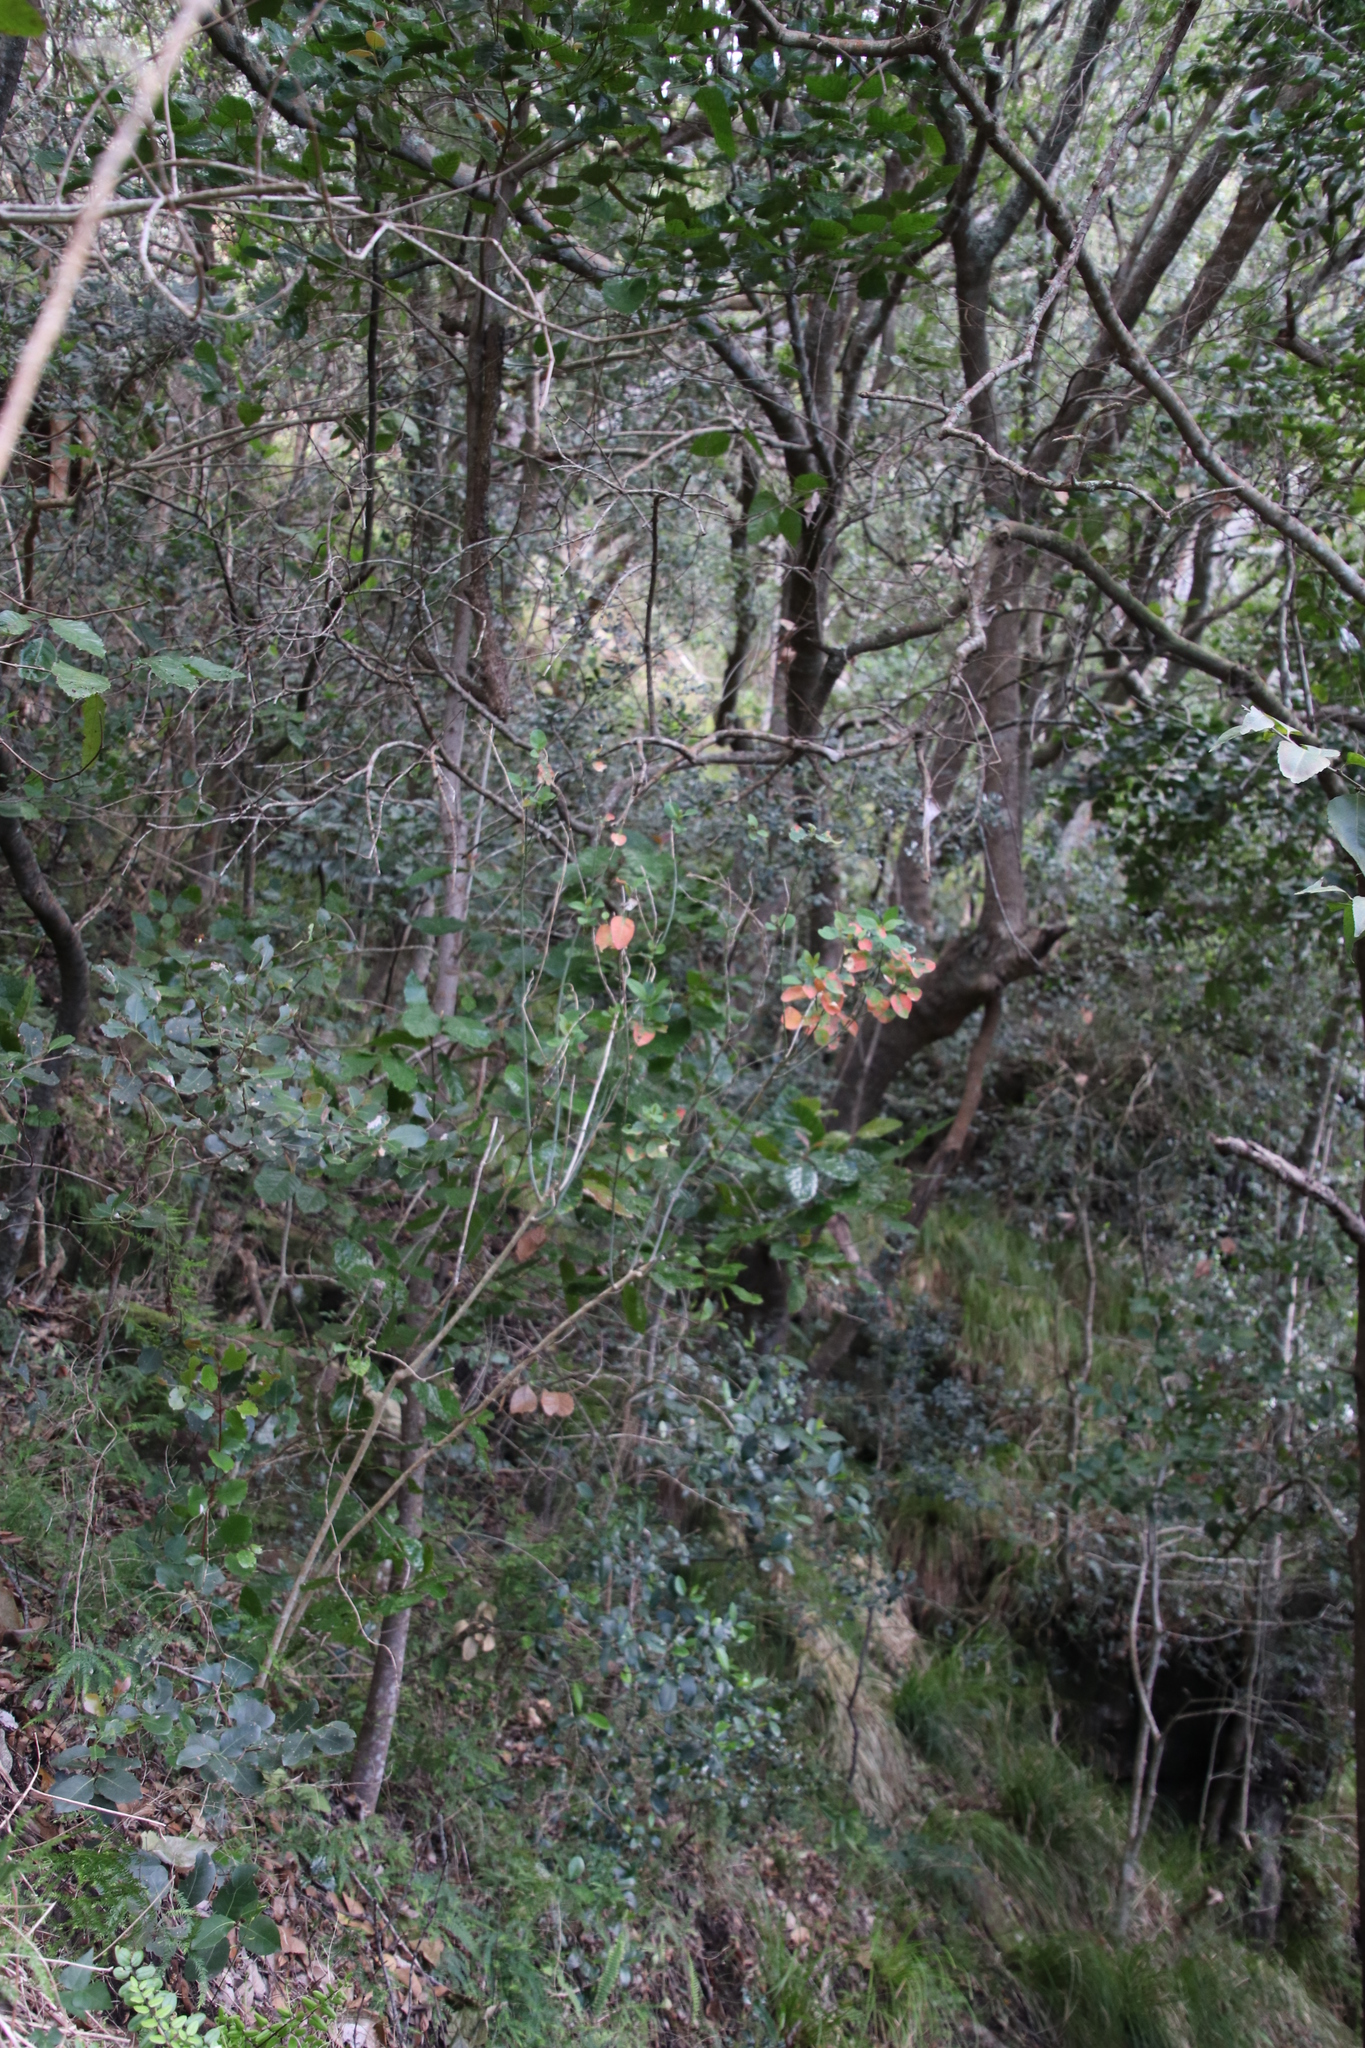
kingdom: Plantae
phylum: Tracheophyta
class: Magnoliopsida
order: Malpighiales
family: Peraceae
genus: Clutia
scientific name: Clutia pulchella
